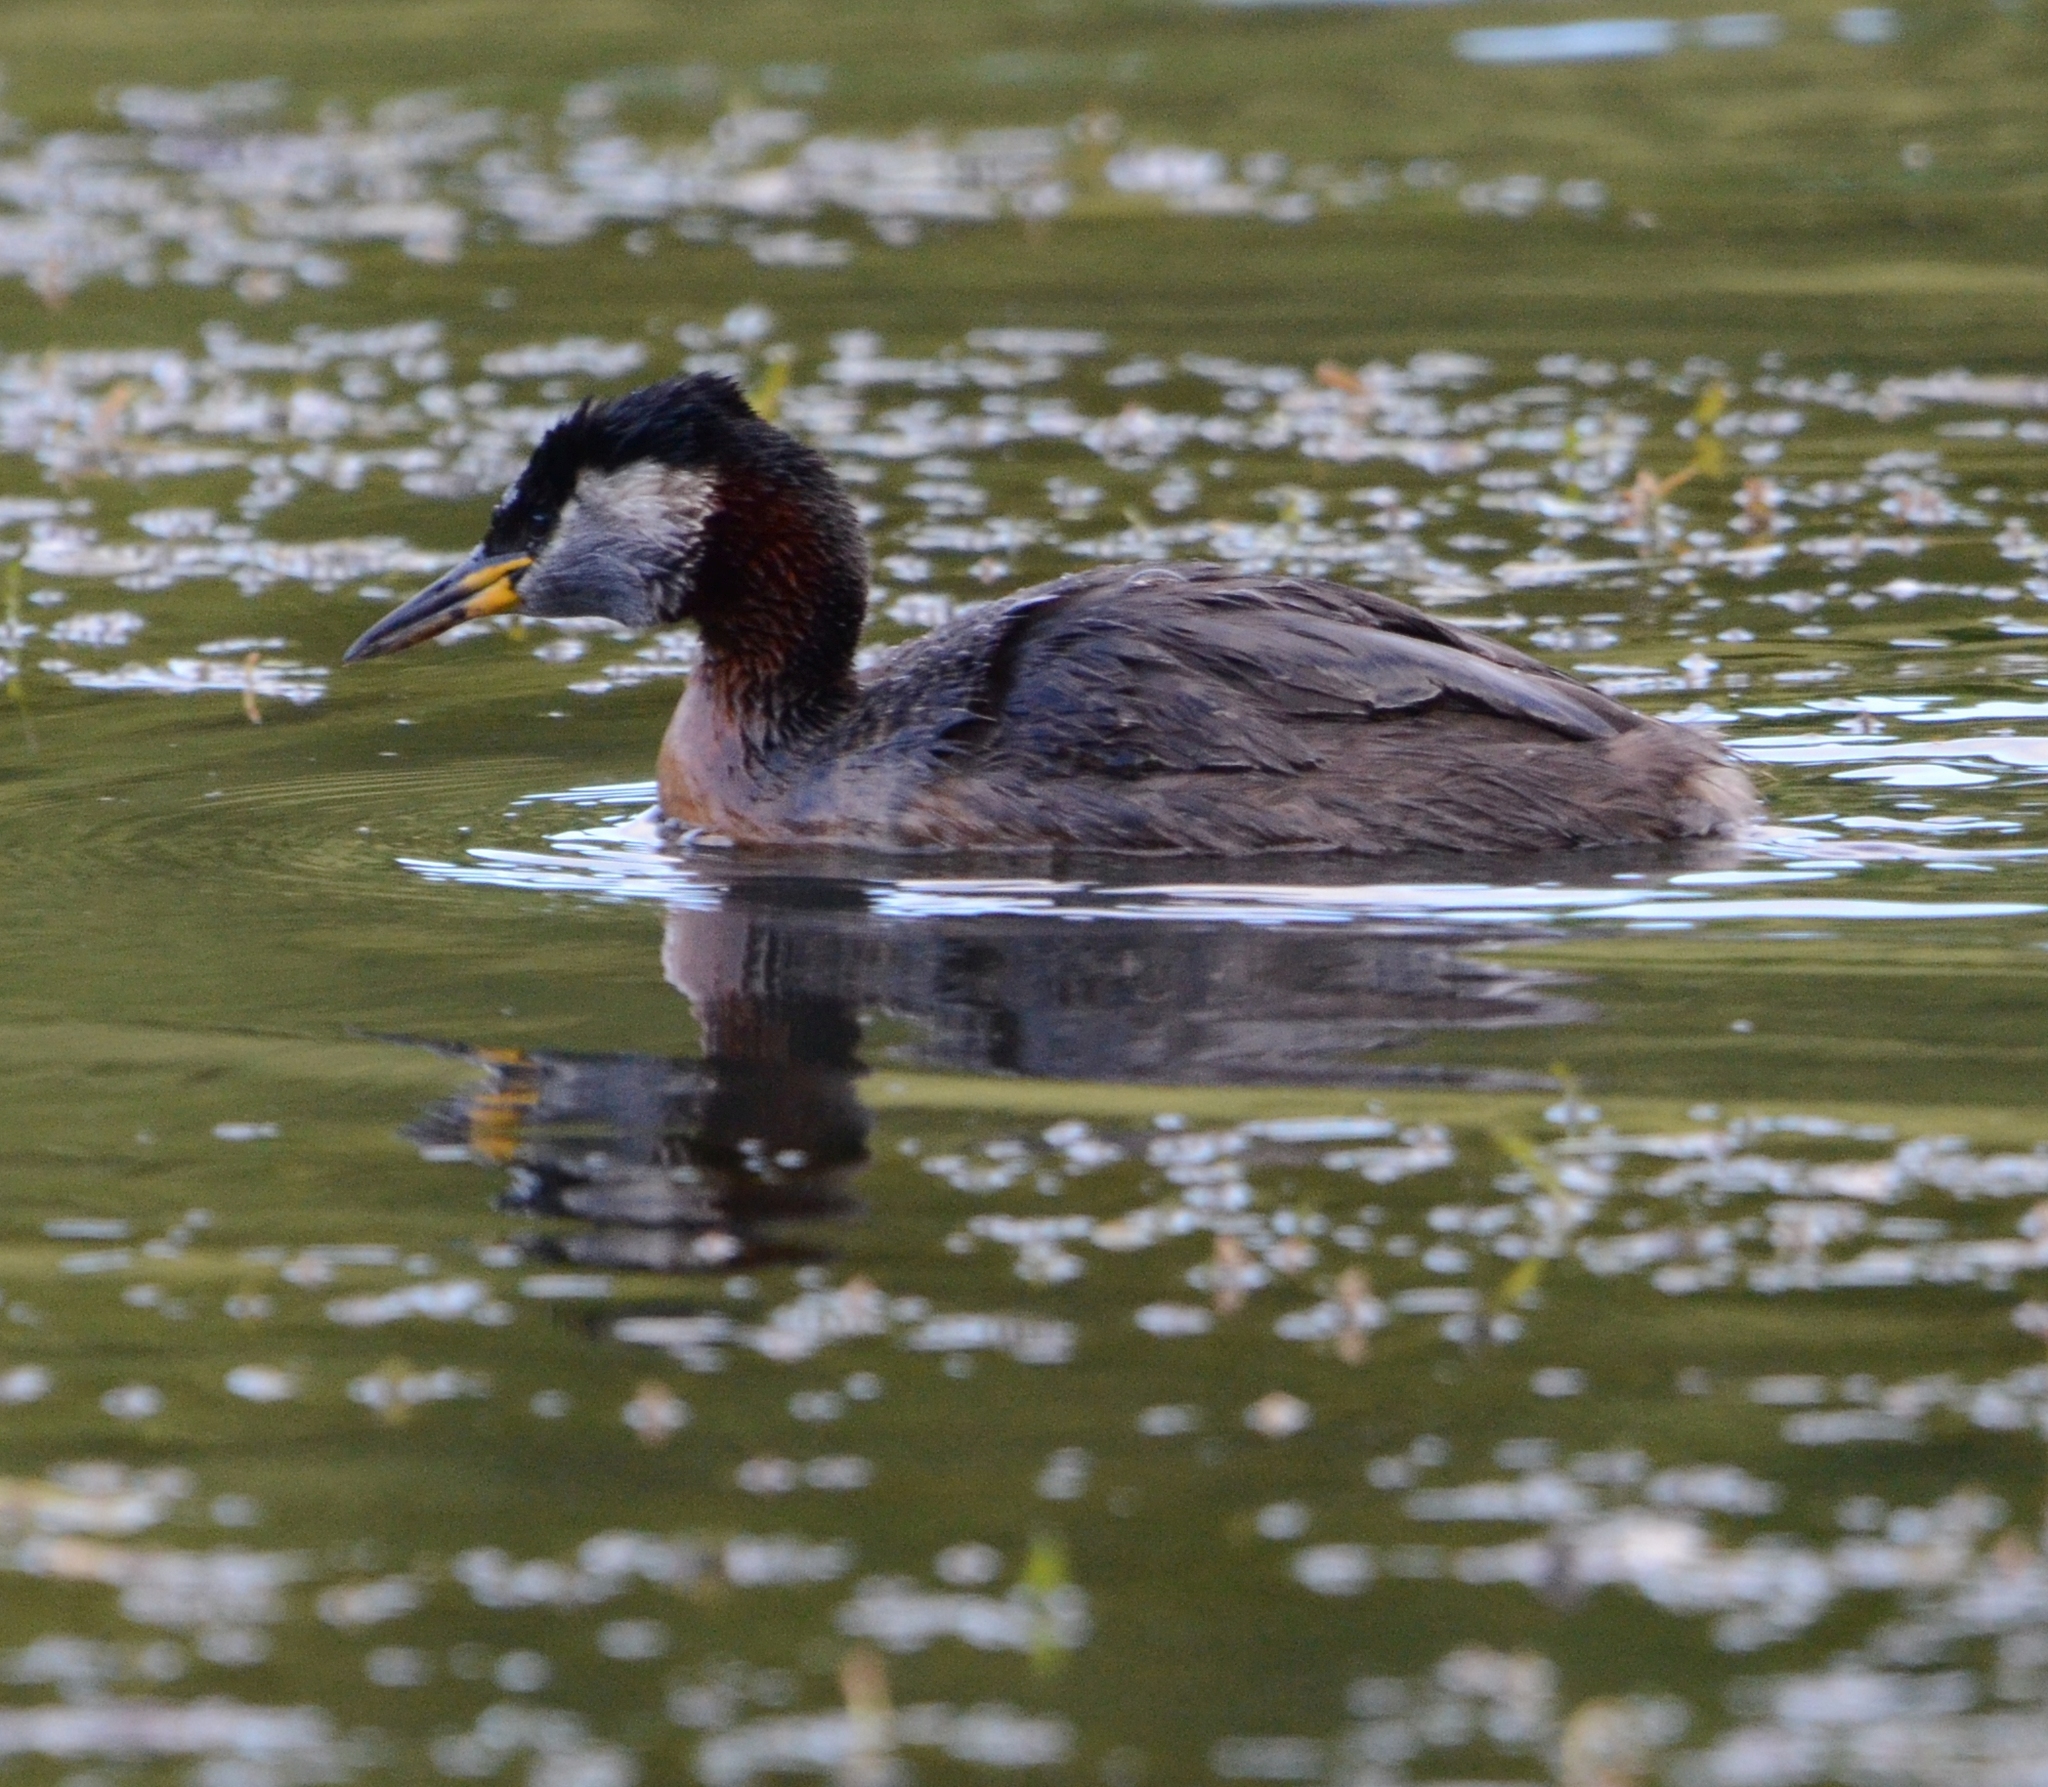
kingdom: Animalia
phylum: Chordata
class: Aves
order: Podicipediformes
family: Podicipedidae
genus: Podiceps
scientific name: Podiceps grisegena
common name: Red-necked grebe
